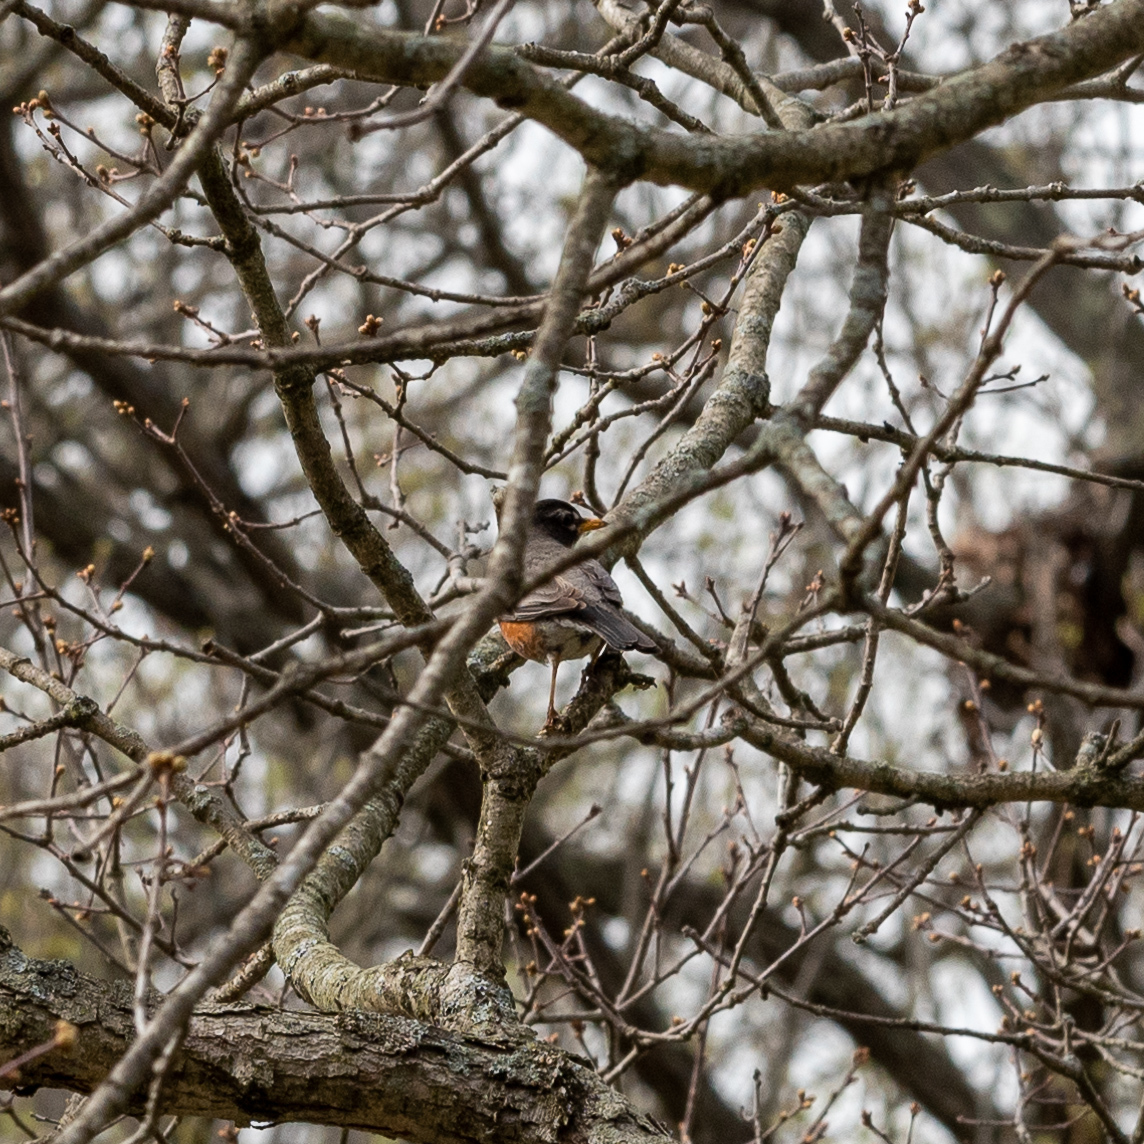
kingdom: Animalia
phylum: Chordata
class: Aves
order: Passeriformes
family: Turdidae
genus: Turdus
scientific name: Turdus migratorius
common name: American robin
